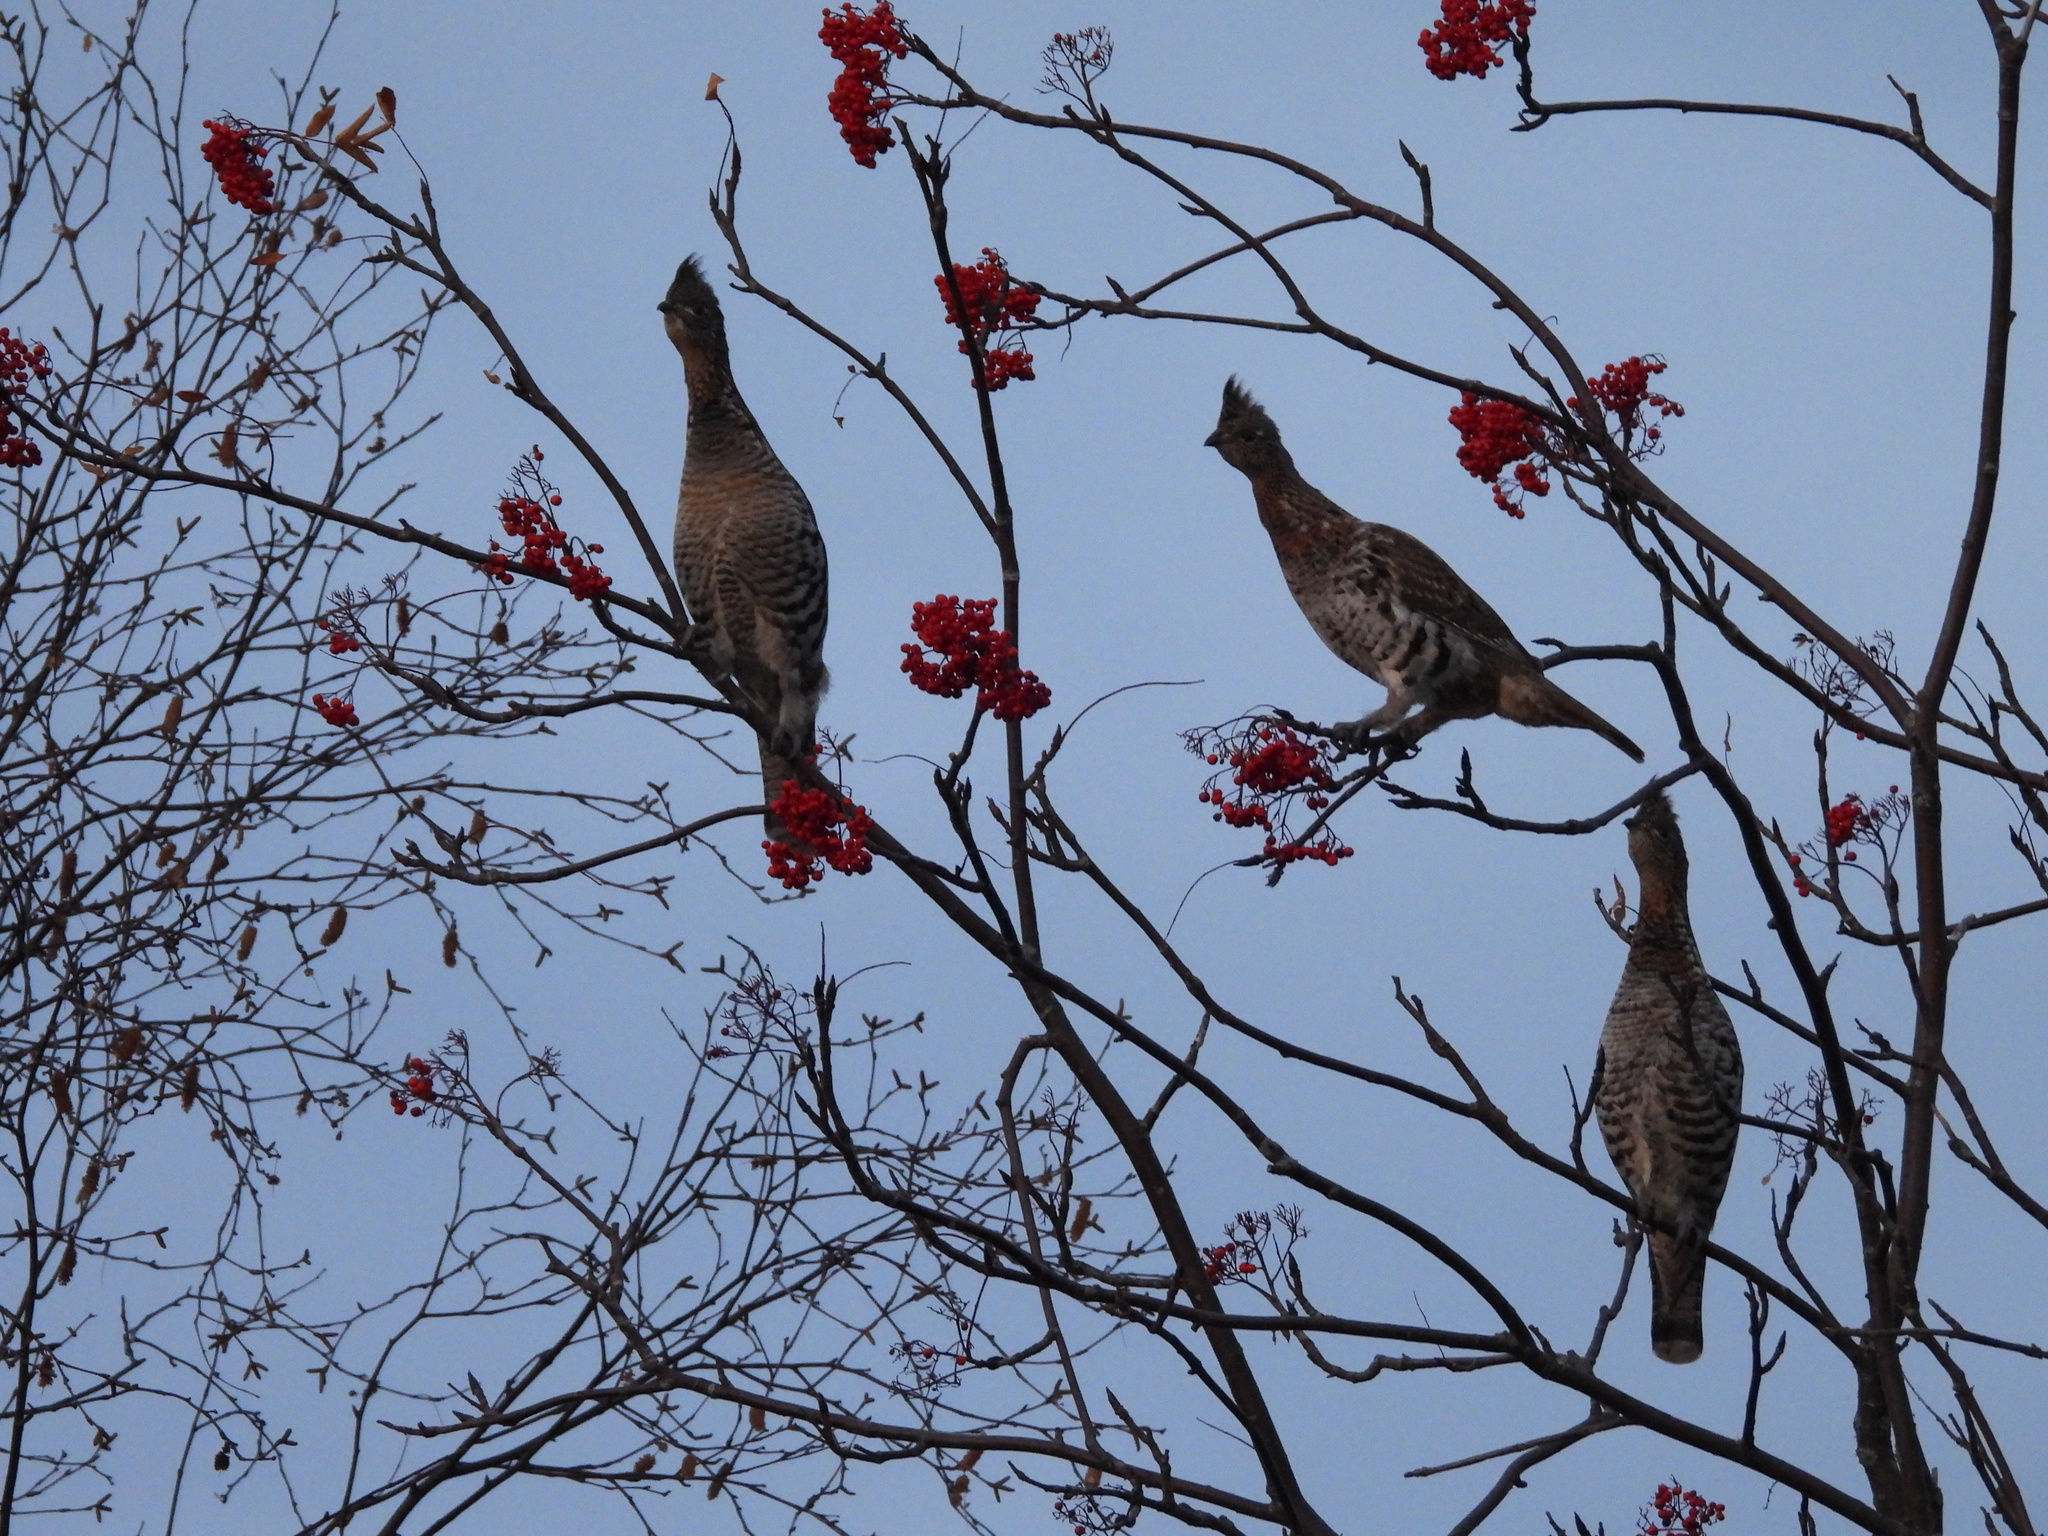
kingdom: Animalia
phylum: Chordata
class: Aves
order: Galliformes
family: Phasianidae
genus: Bonasa
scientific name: Bonasa umbellus
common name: Ruffed grouse
